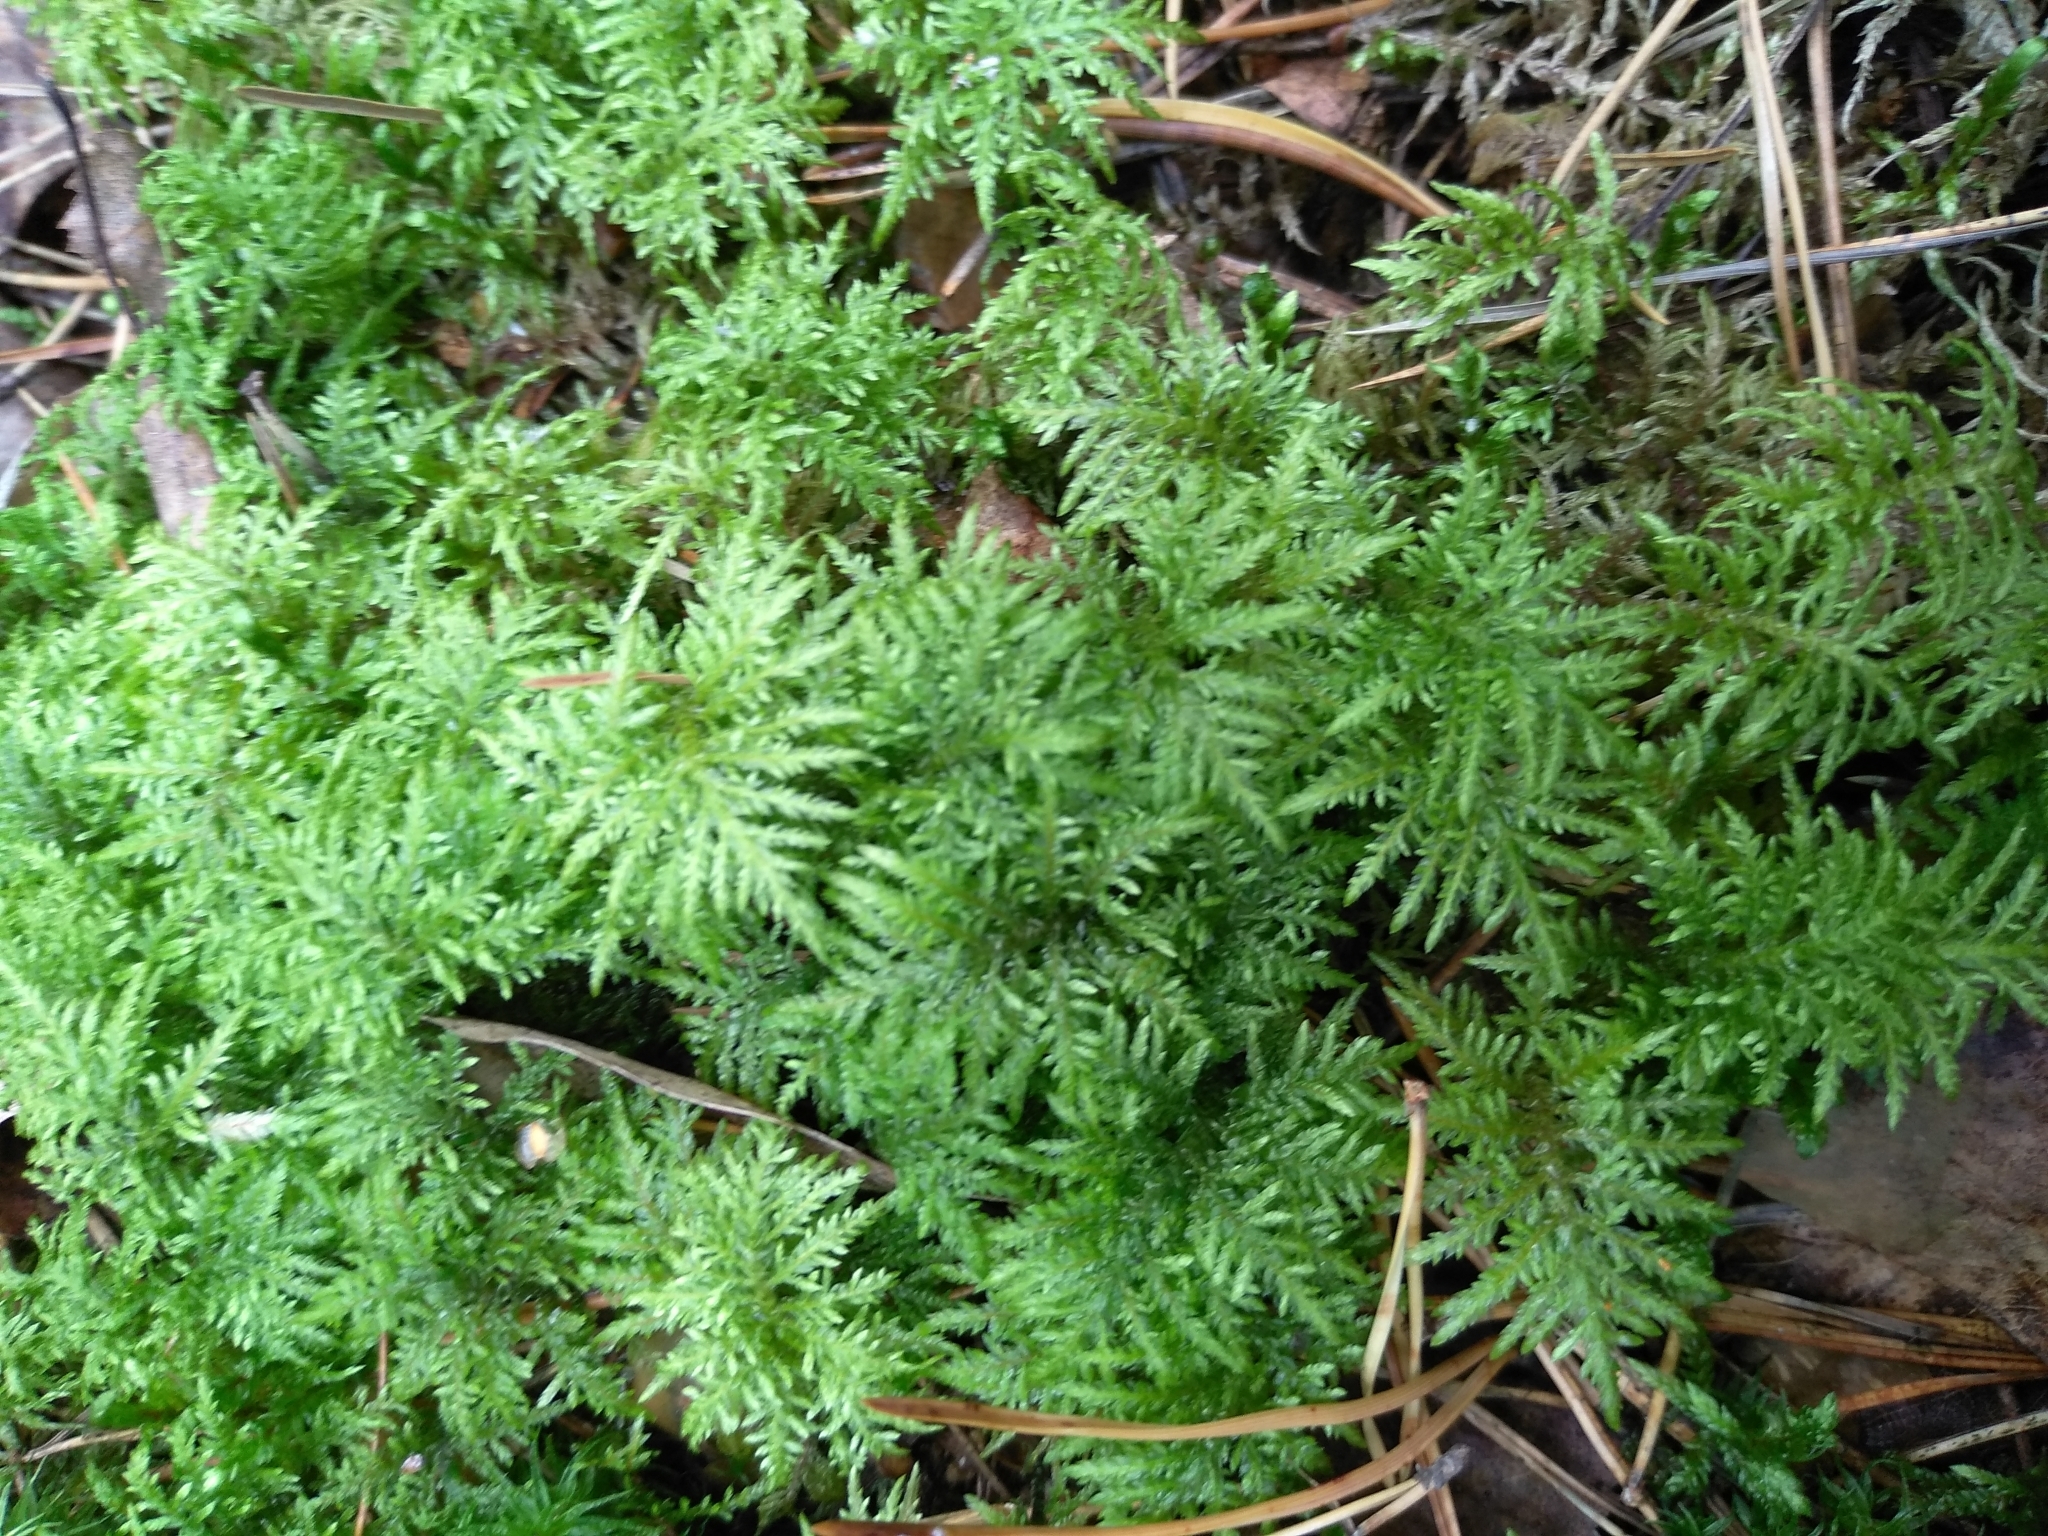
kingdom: Plantae
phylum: Bryophyta
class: Bryopsida
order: Hypnales
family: Hylocomiaceae
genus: Hylocomium
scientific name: Hylocomium splendens
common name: Stairstep moss
